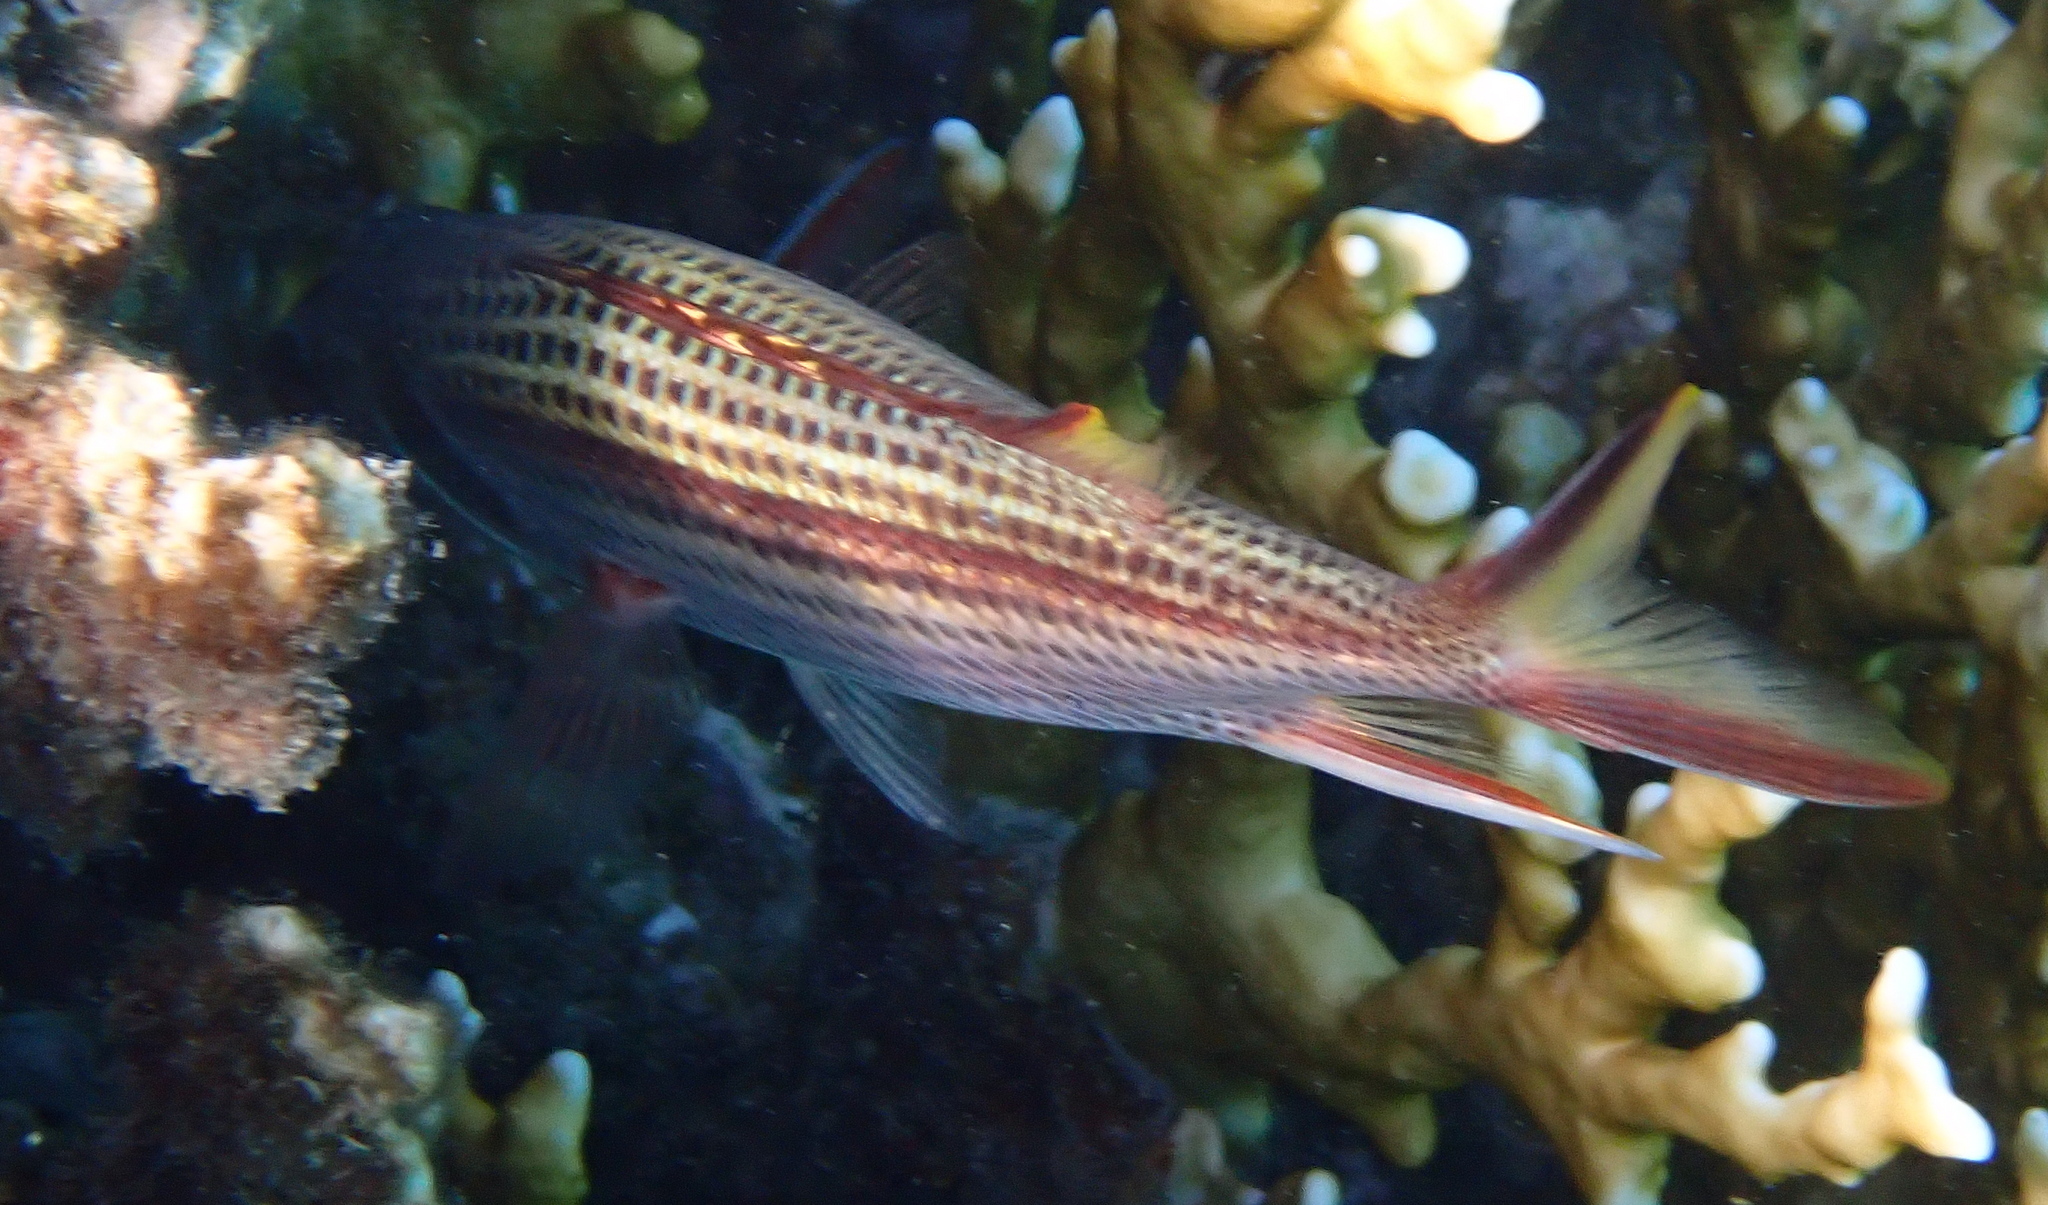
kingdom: Animalia
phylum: Chordata
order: Beryciformes
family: Holocentridae
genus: Neoniphon
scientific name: Neoniphon sammara
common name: Sammara squirrelfish
